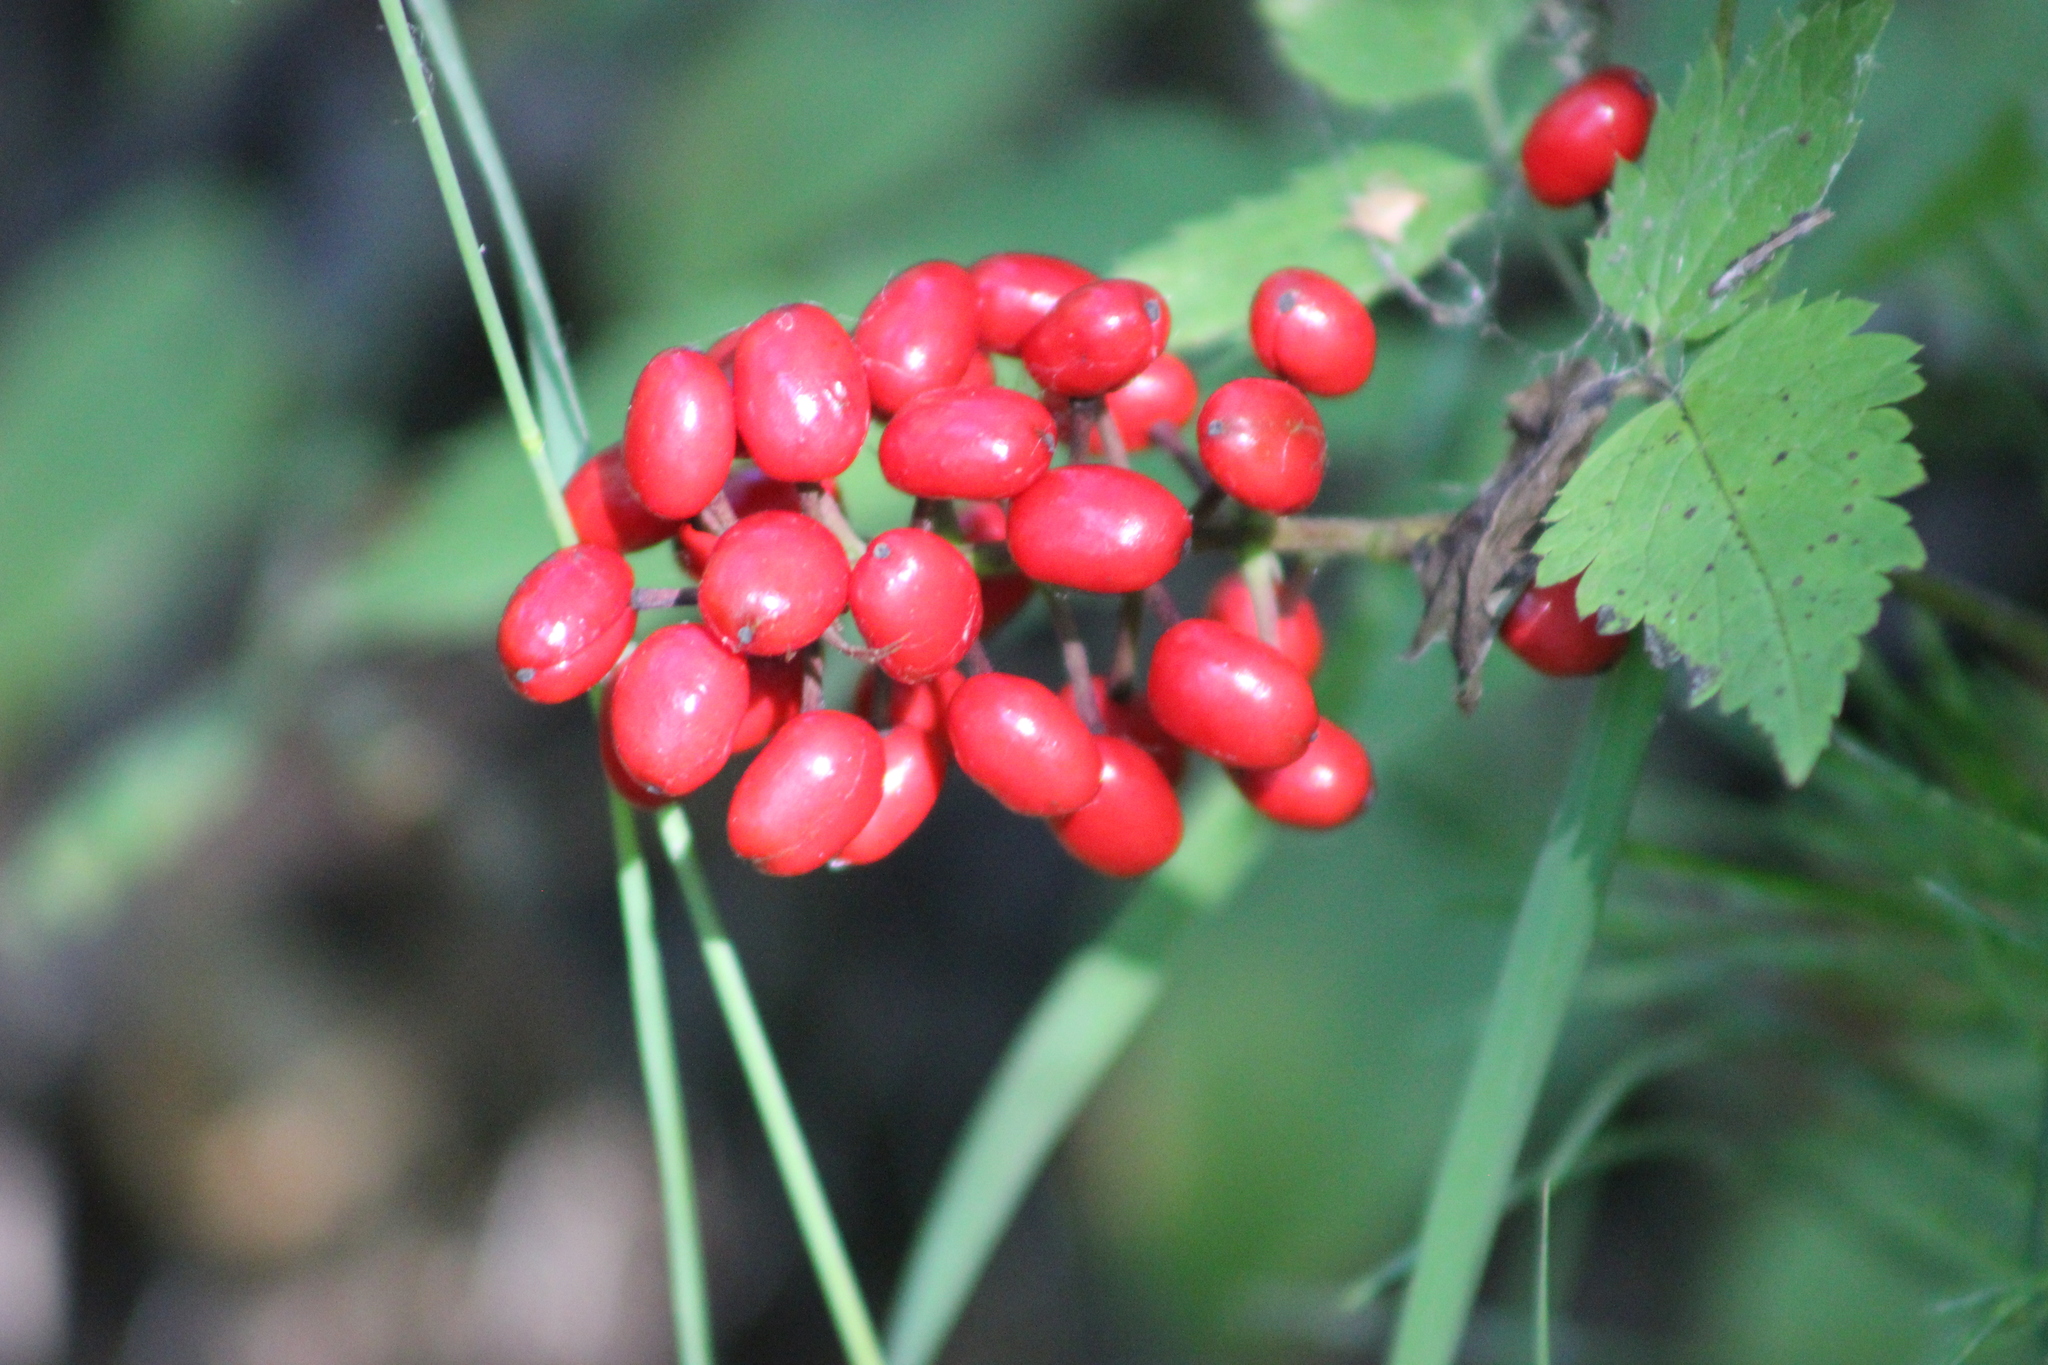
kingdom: Plantae
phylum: Tracheophyta
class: Magnoliopsida
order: Ranunculales
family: Ranunculaceae
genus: Actaea
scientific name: Actaea erythrocarpa
